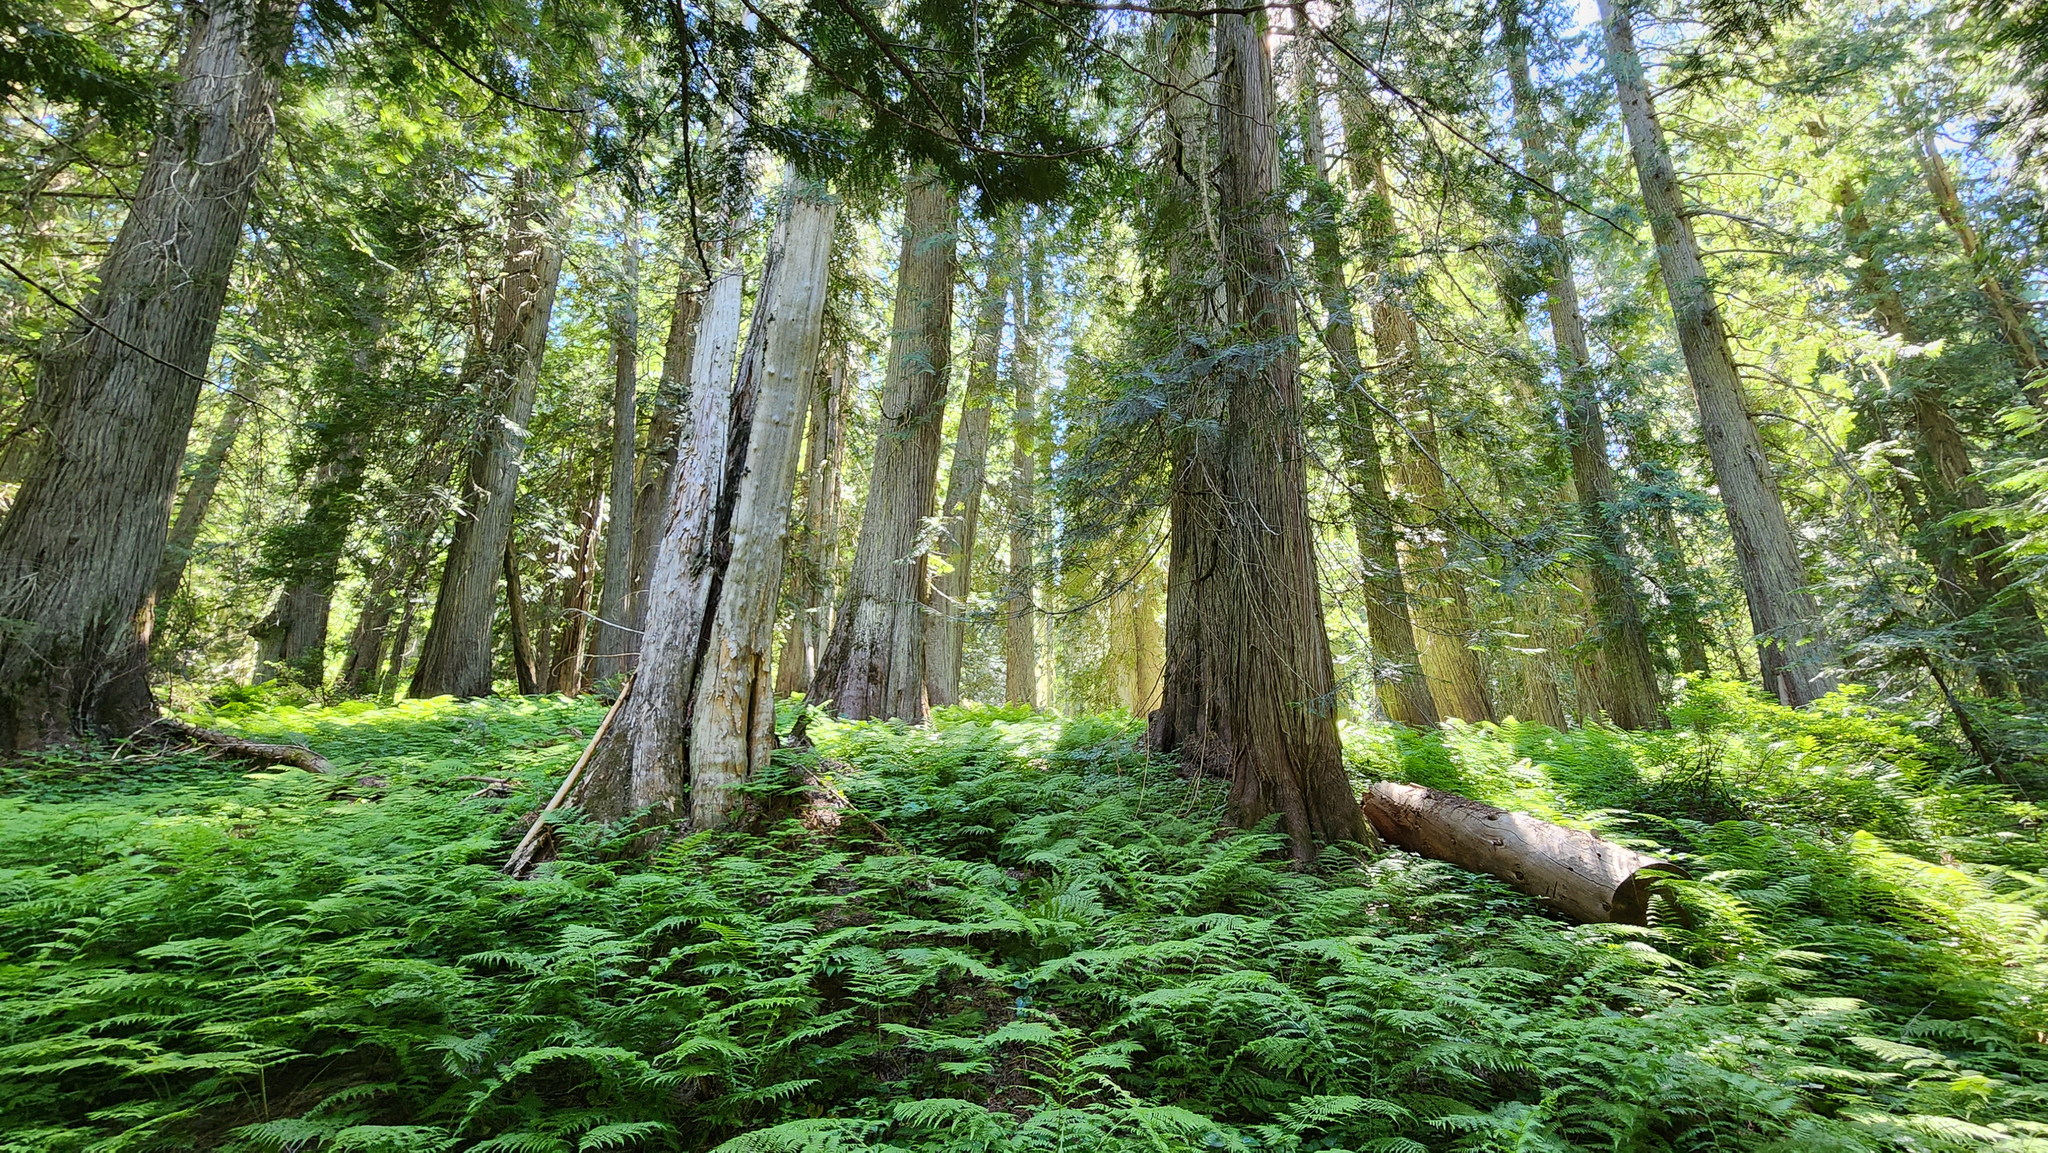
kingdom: Plantae
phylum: Tracheophyta
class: Pinopsida
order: Pinales
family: Cupressaceae
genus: Thuja
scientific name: Thuja plicata
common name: Western red-cedar
